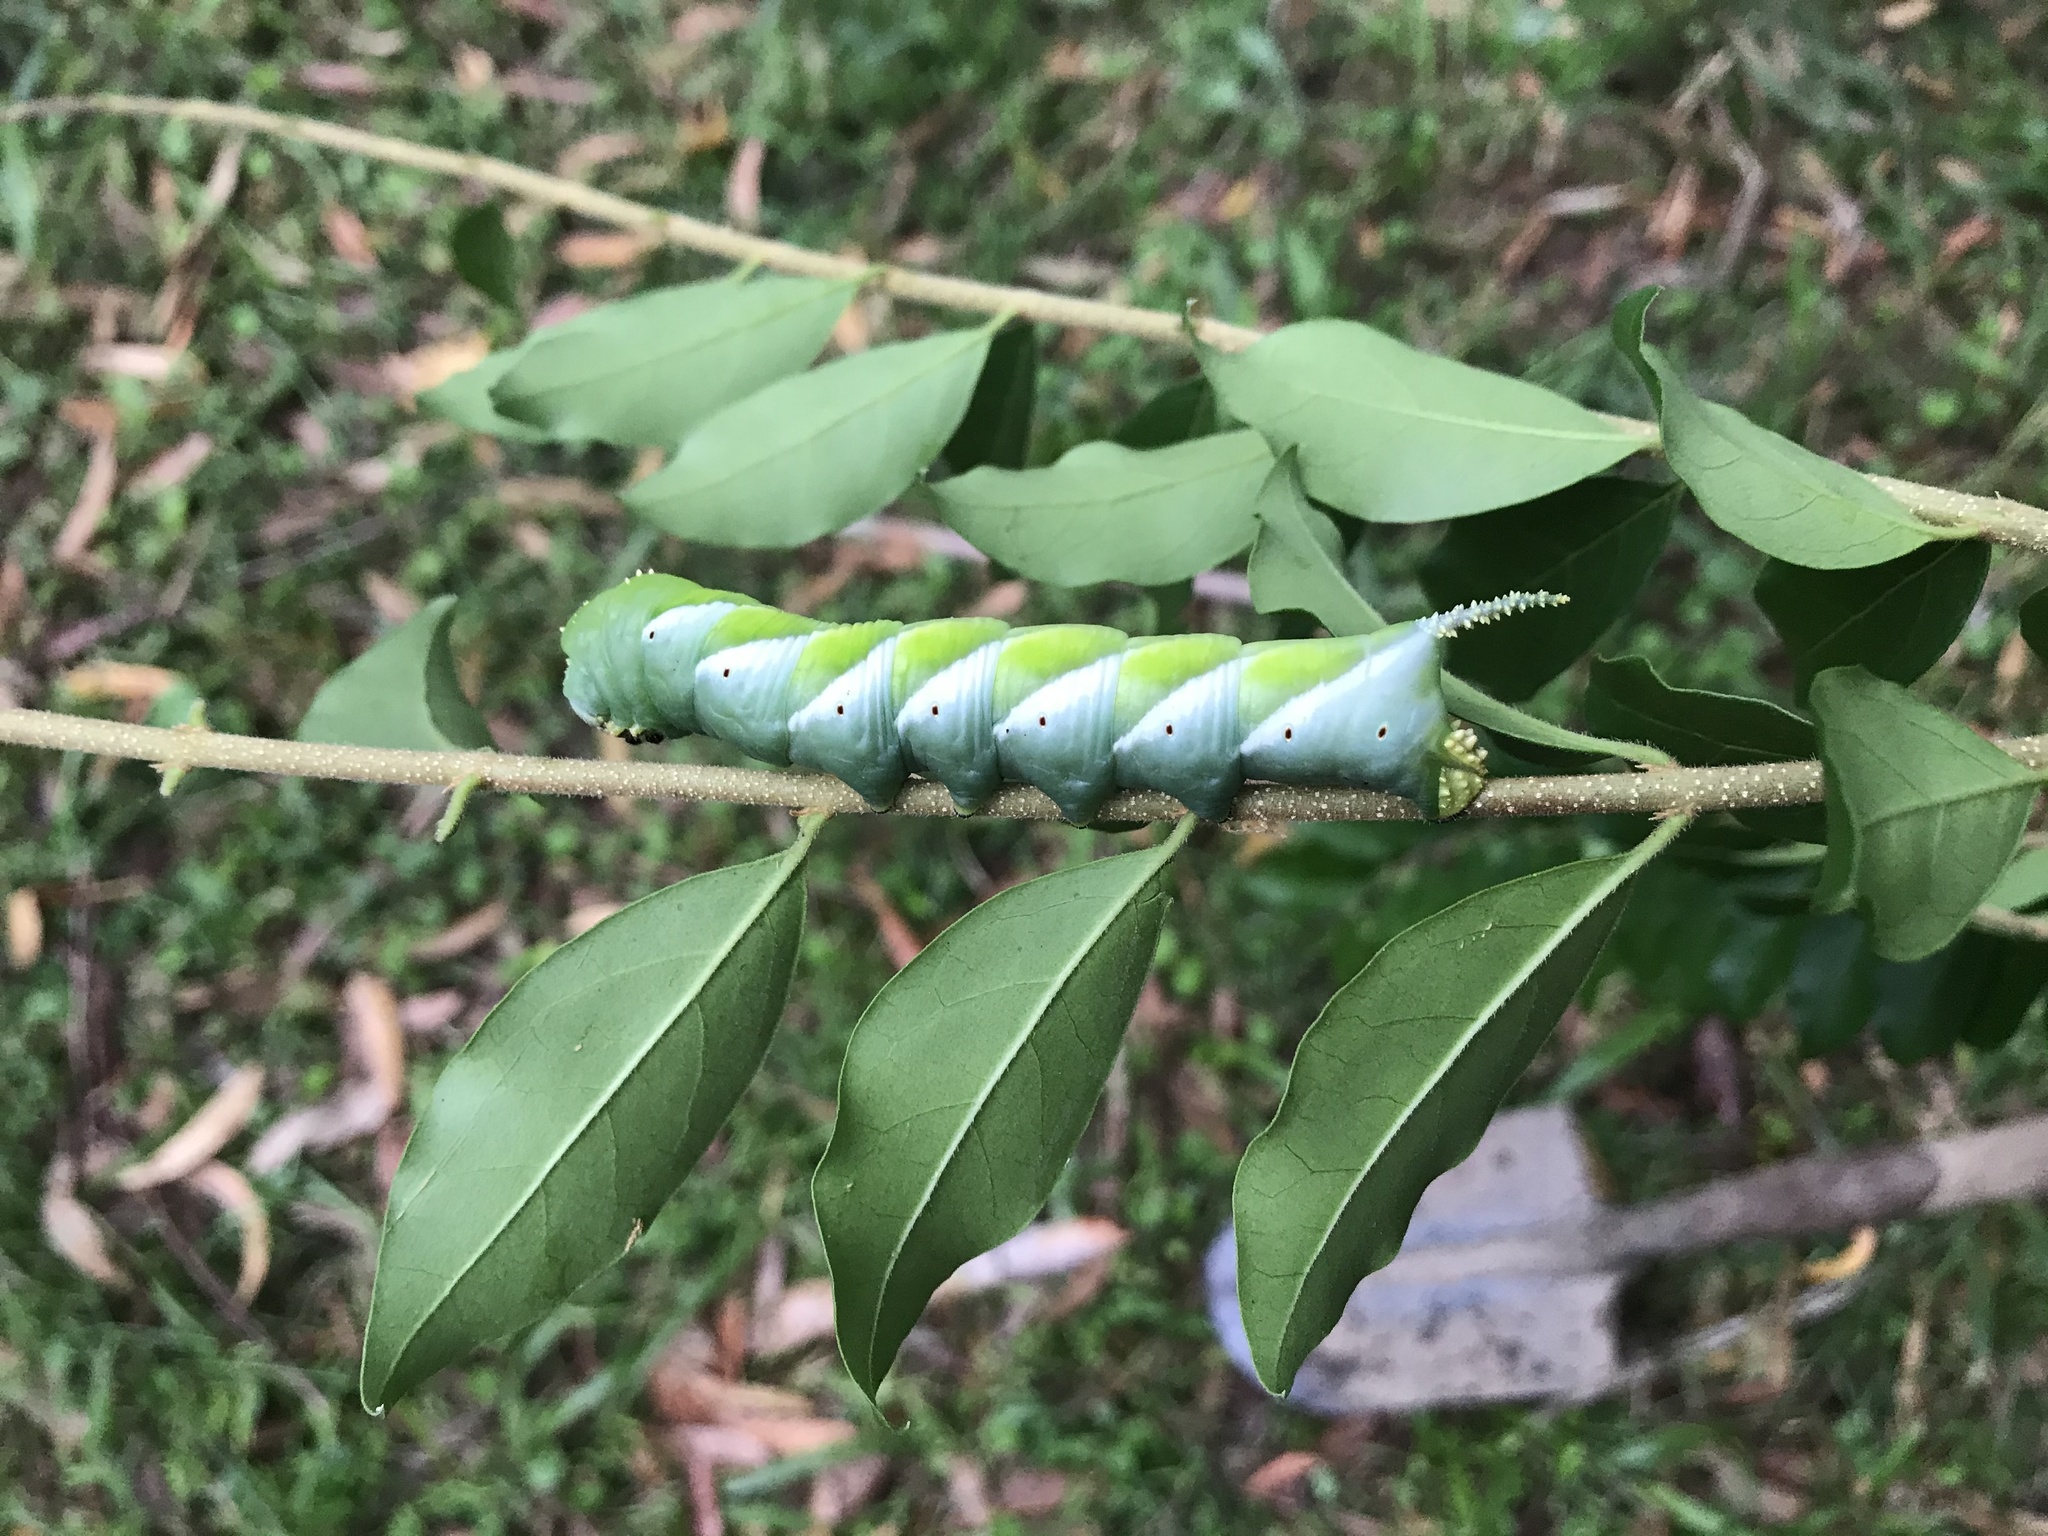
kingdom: Animalia
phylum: Arthropoda
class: Insecta
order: Lepidoptera
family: Sphingidae
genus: Psilogramma
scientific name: Psilogramma casuarinae
